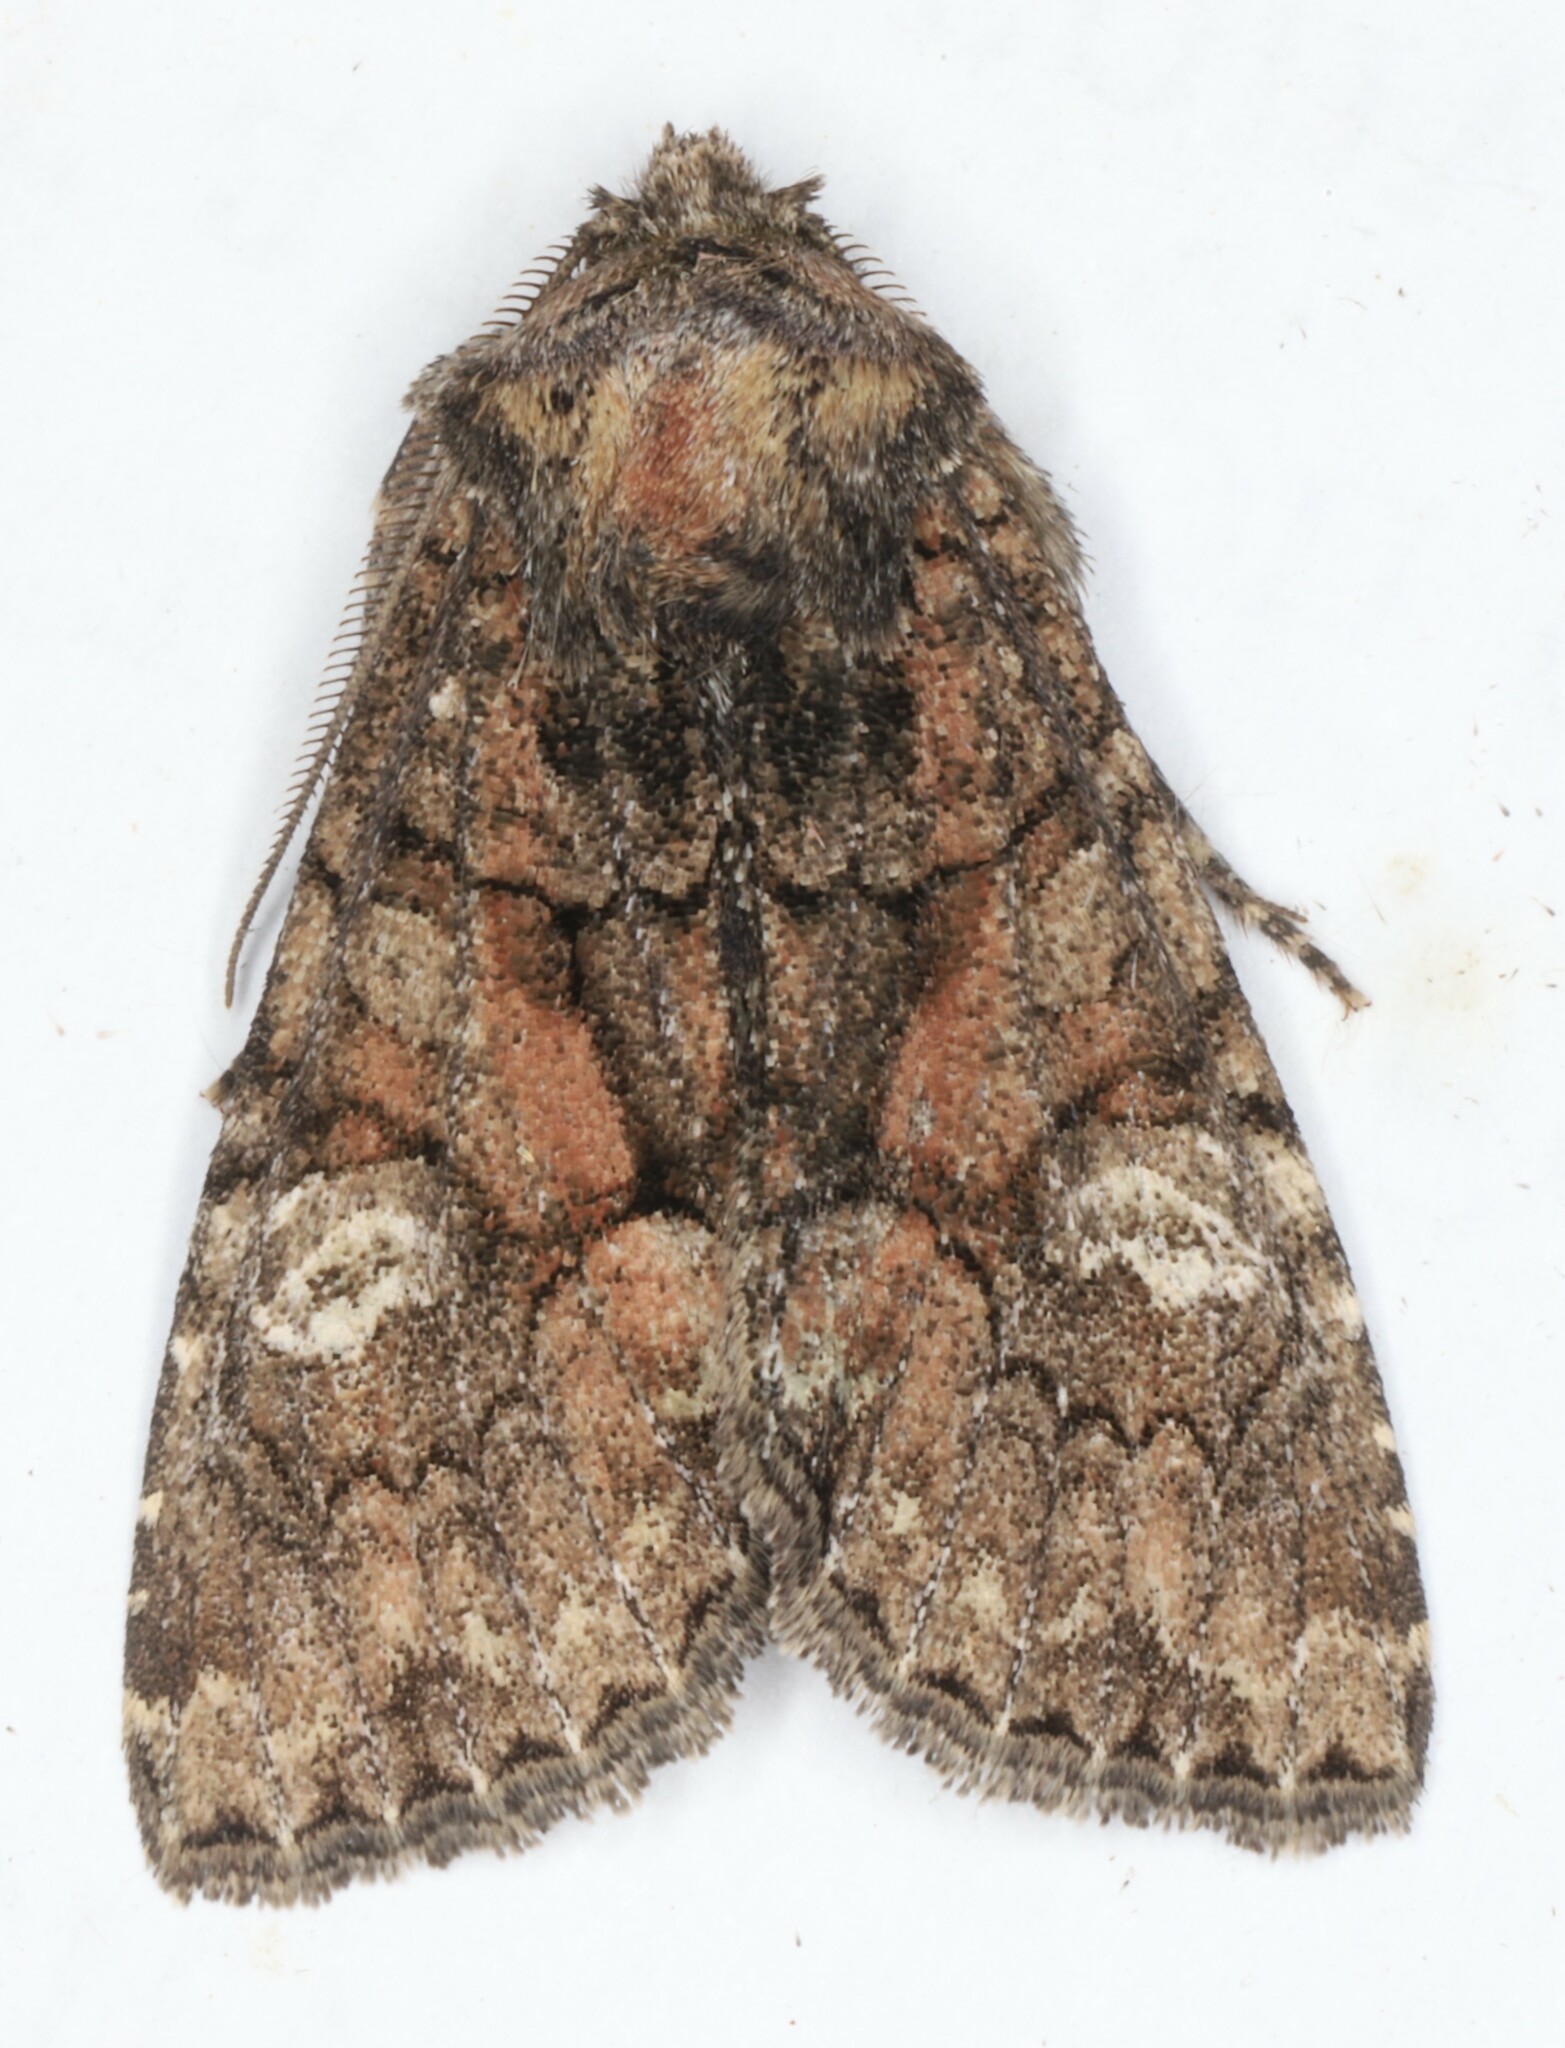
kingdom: Animalia
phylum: Arthropoda
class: Insecta
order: Lepidoptera
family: Noctuidae
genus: Fishia
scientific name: Fishia illocata
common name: Wandering brocade moth
